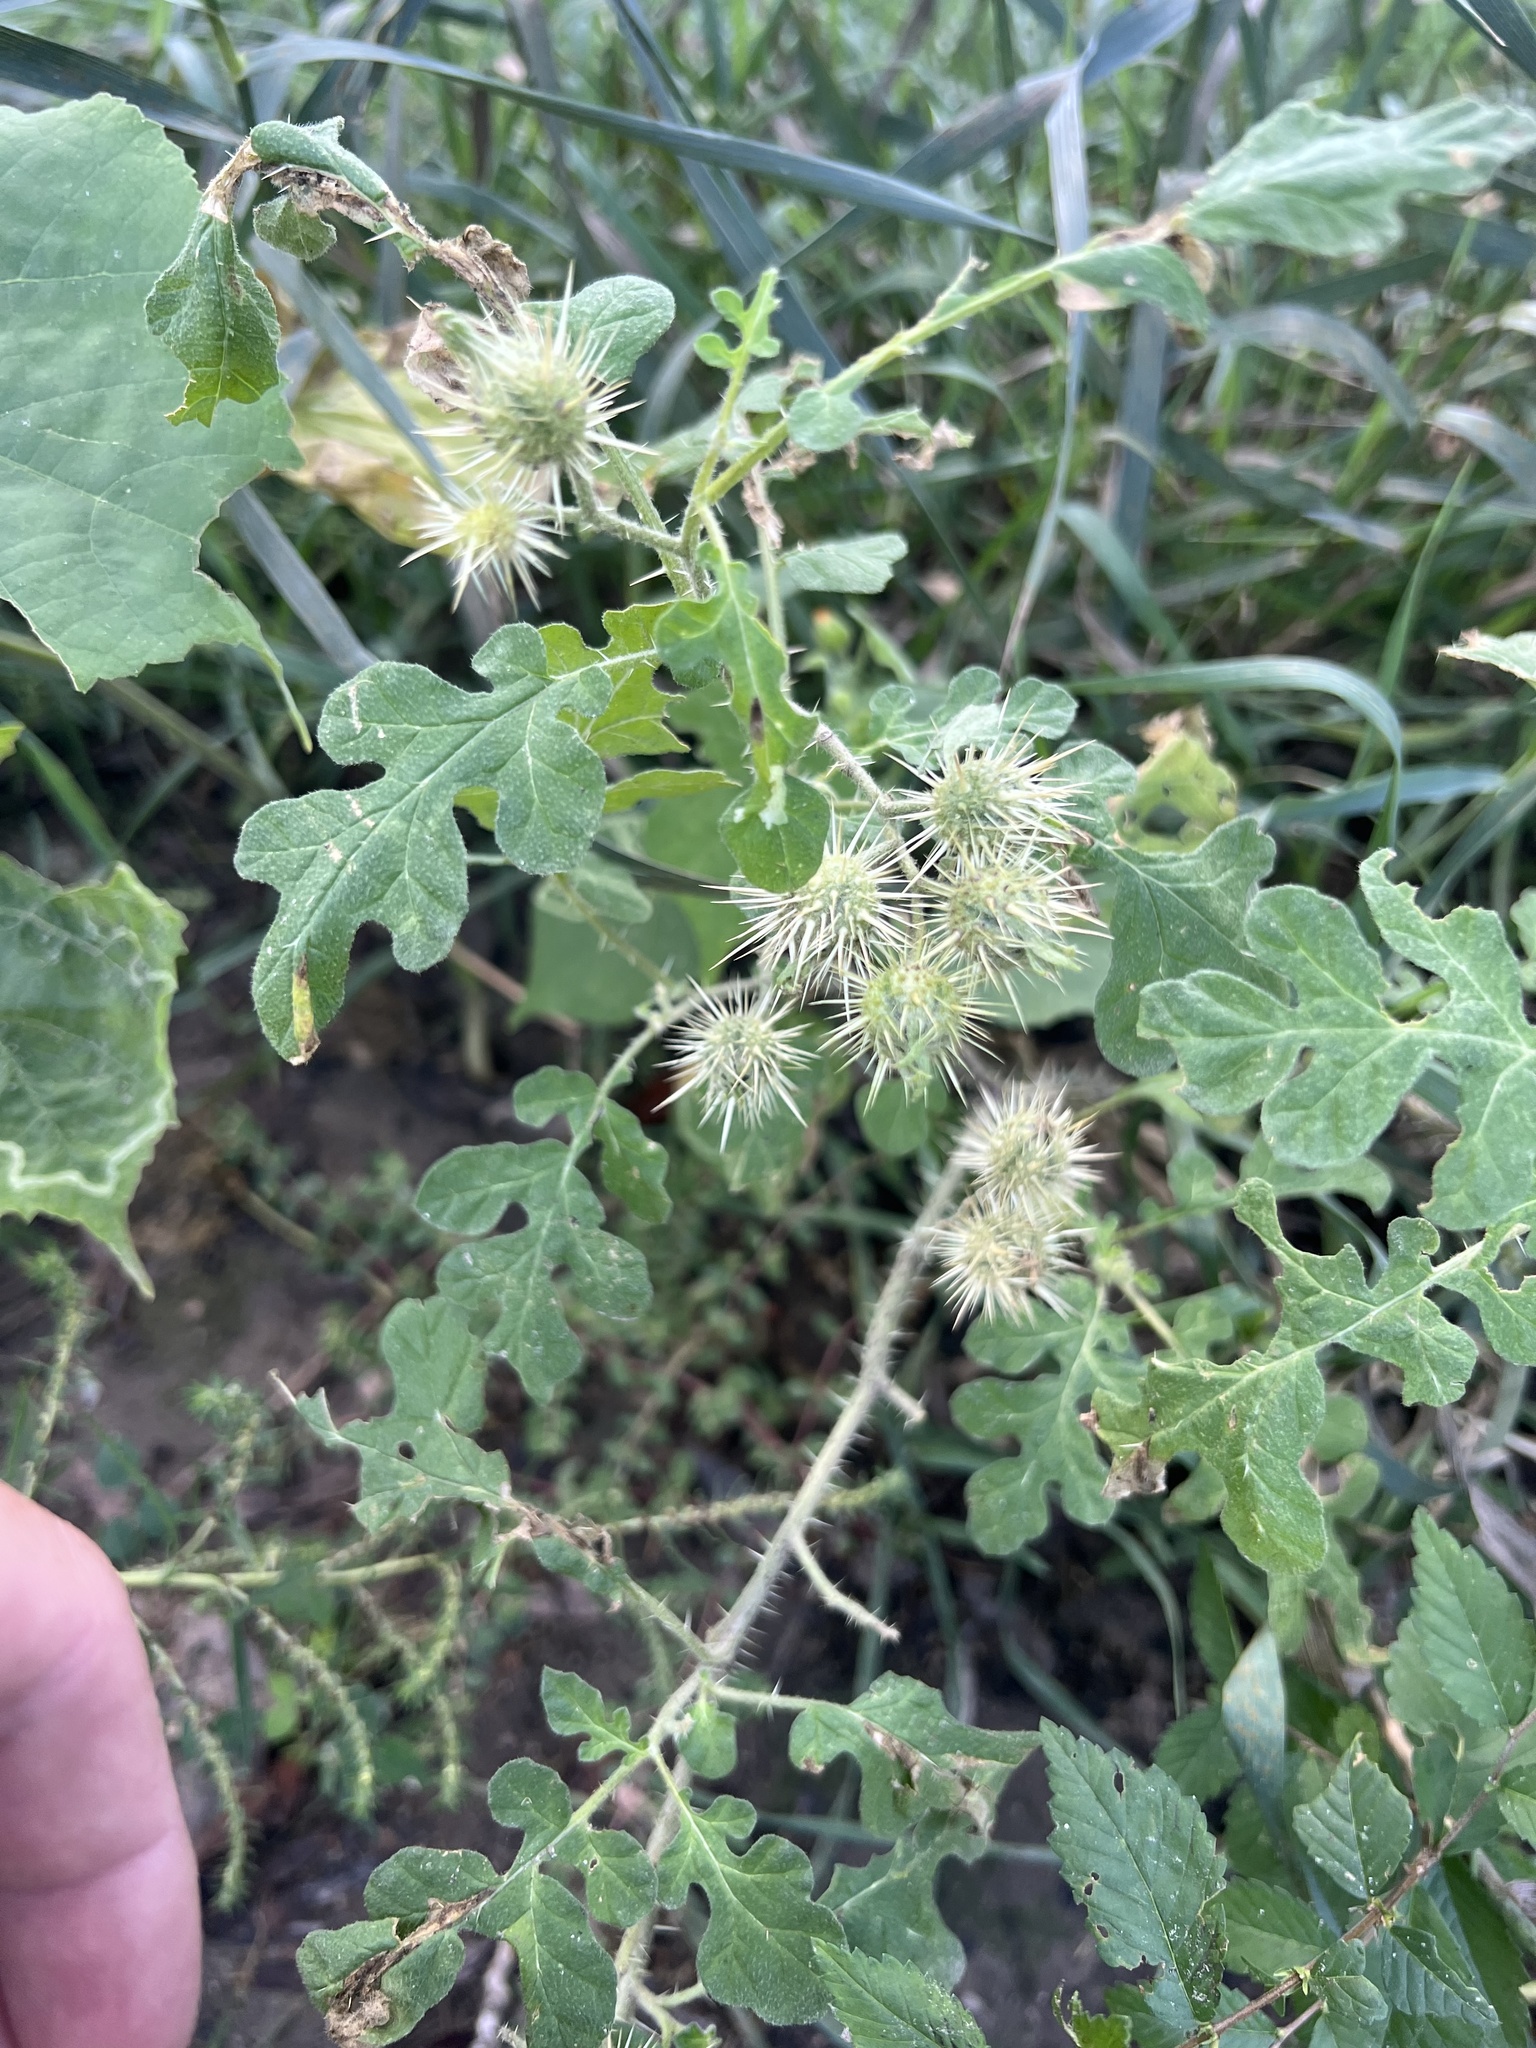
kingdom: Plantae
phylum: Tracheophyta
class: Magnoliopsida
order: Solanales
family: Solanaceae
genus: Solanum
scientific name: Solanum angustifolium
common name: Buffalobur nightshade
